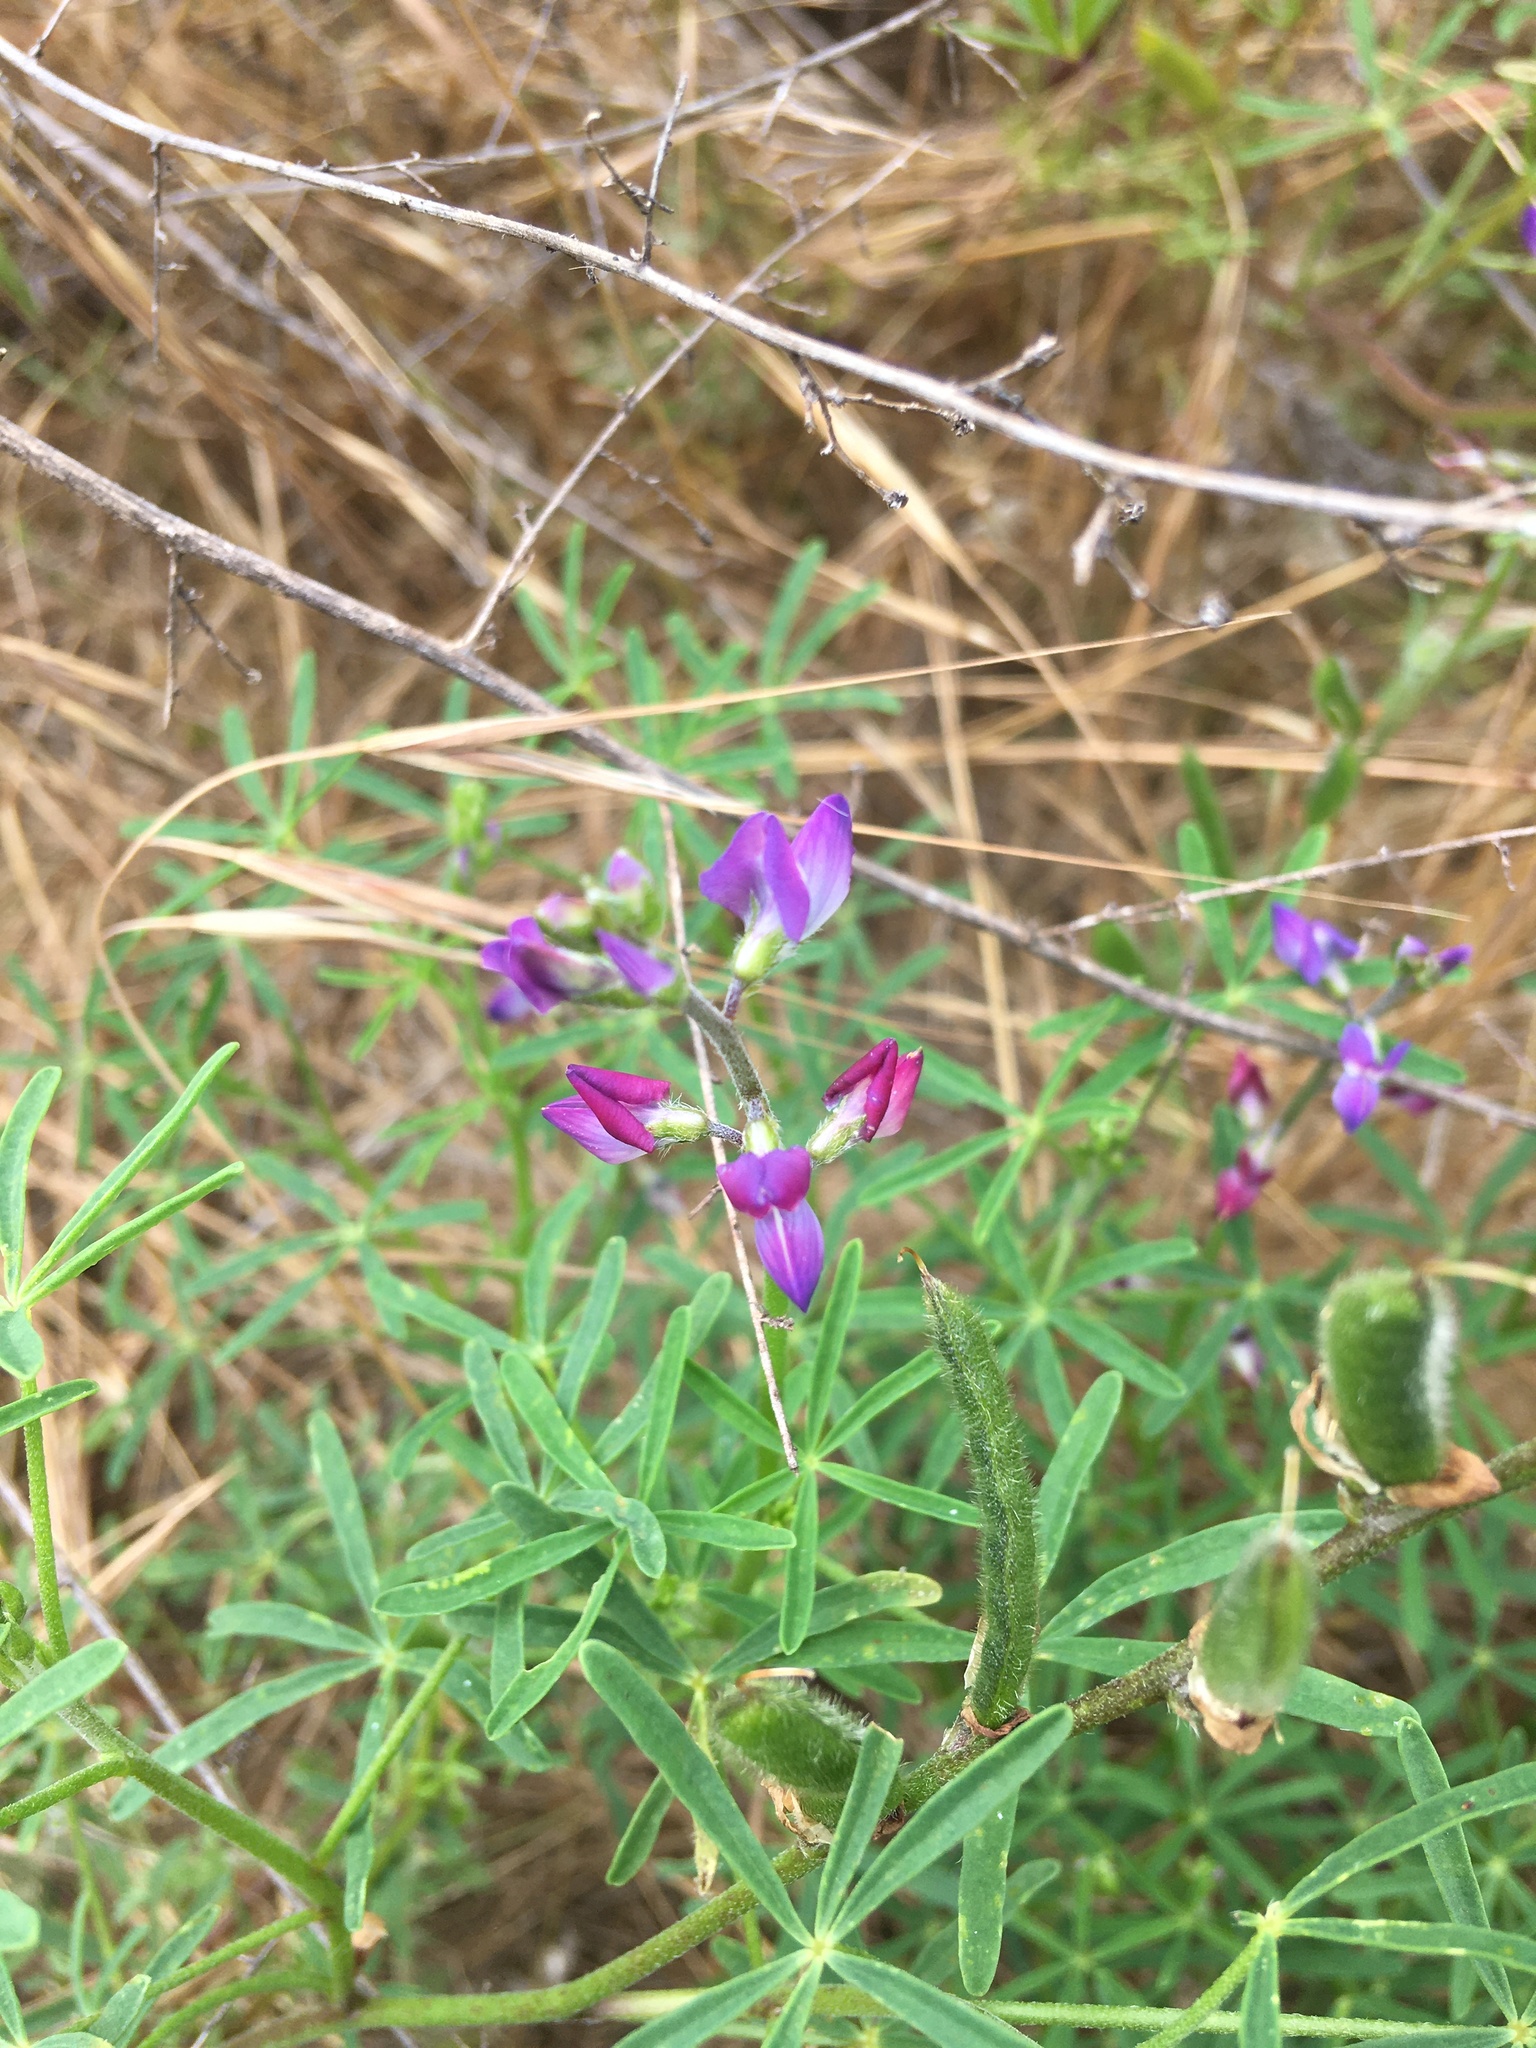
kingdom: Plantae
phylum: Tracheophyta
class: Magnoliopsida
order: Fabales
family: Fabaceae
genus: Lupinus
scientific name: Lupinus truncatus
